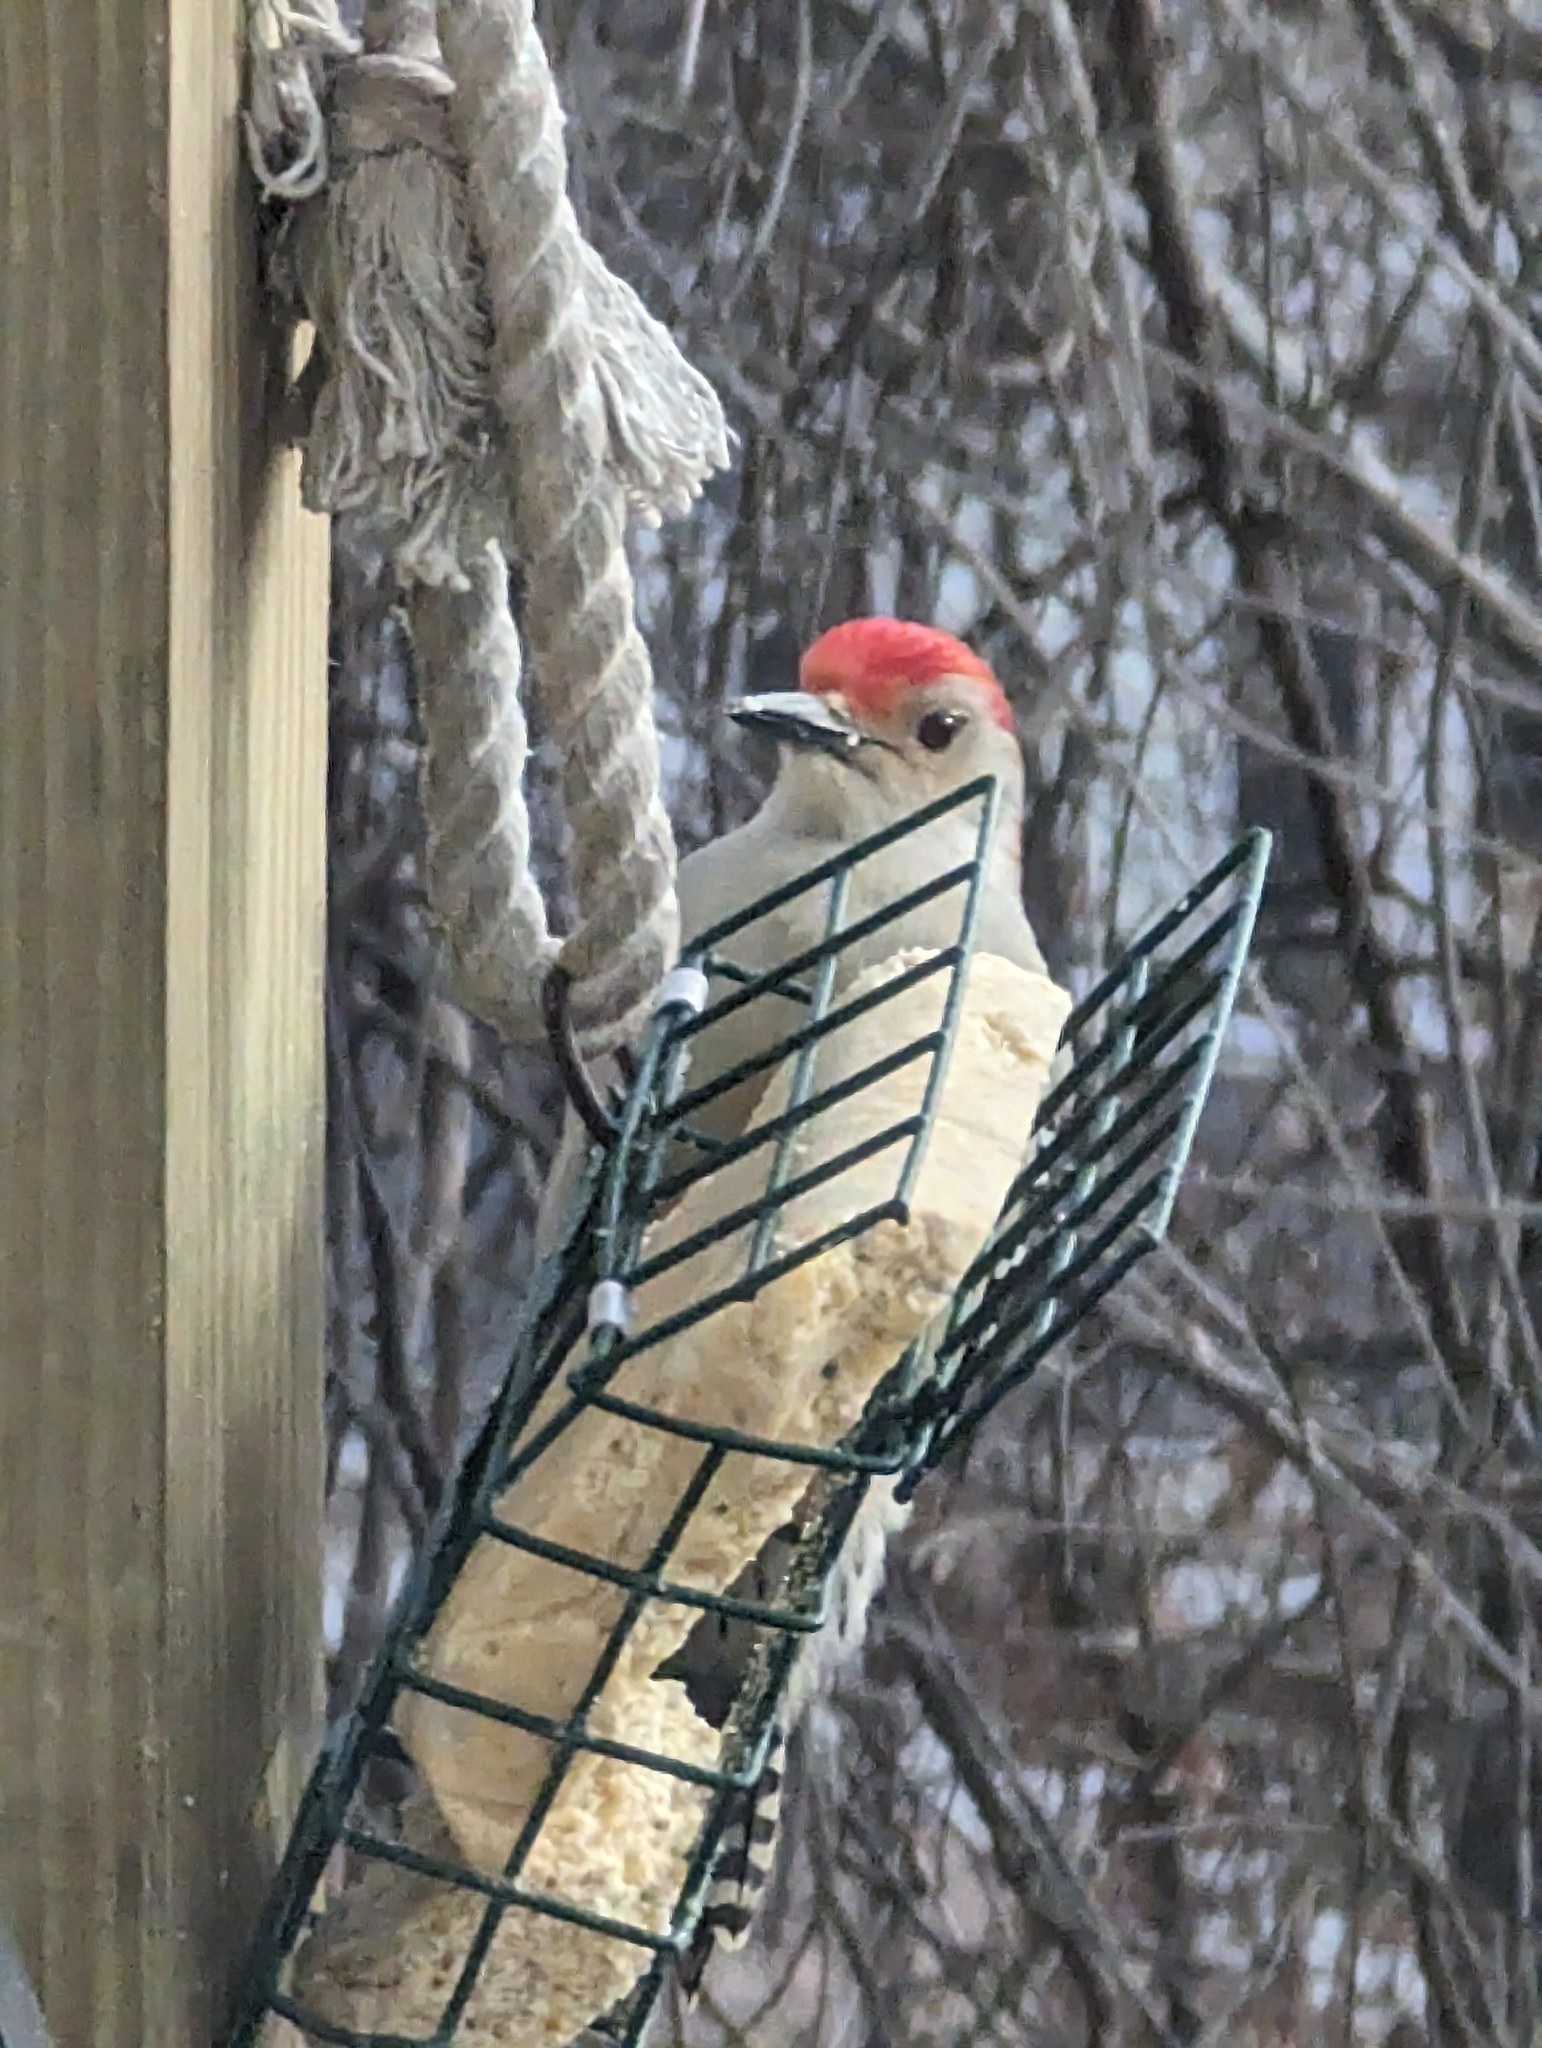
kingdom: Animalia
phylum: Chordata
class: Aves
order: Piciformes
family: Picidae
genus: Melanerpes
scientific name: Melanerpes carolinus
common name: Red-bellied woodpecker
